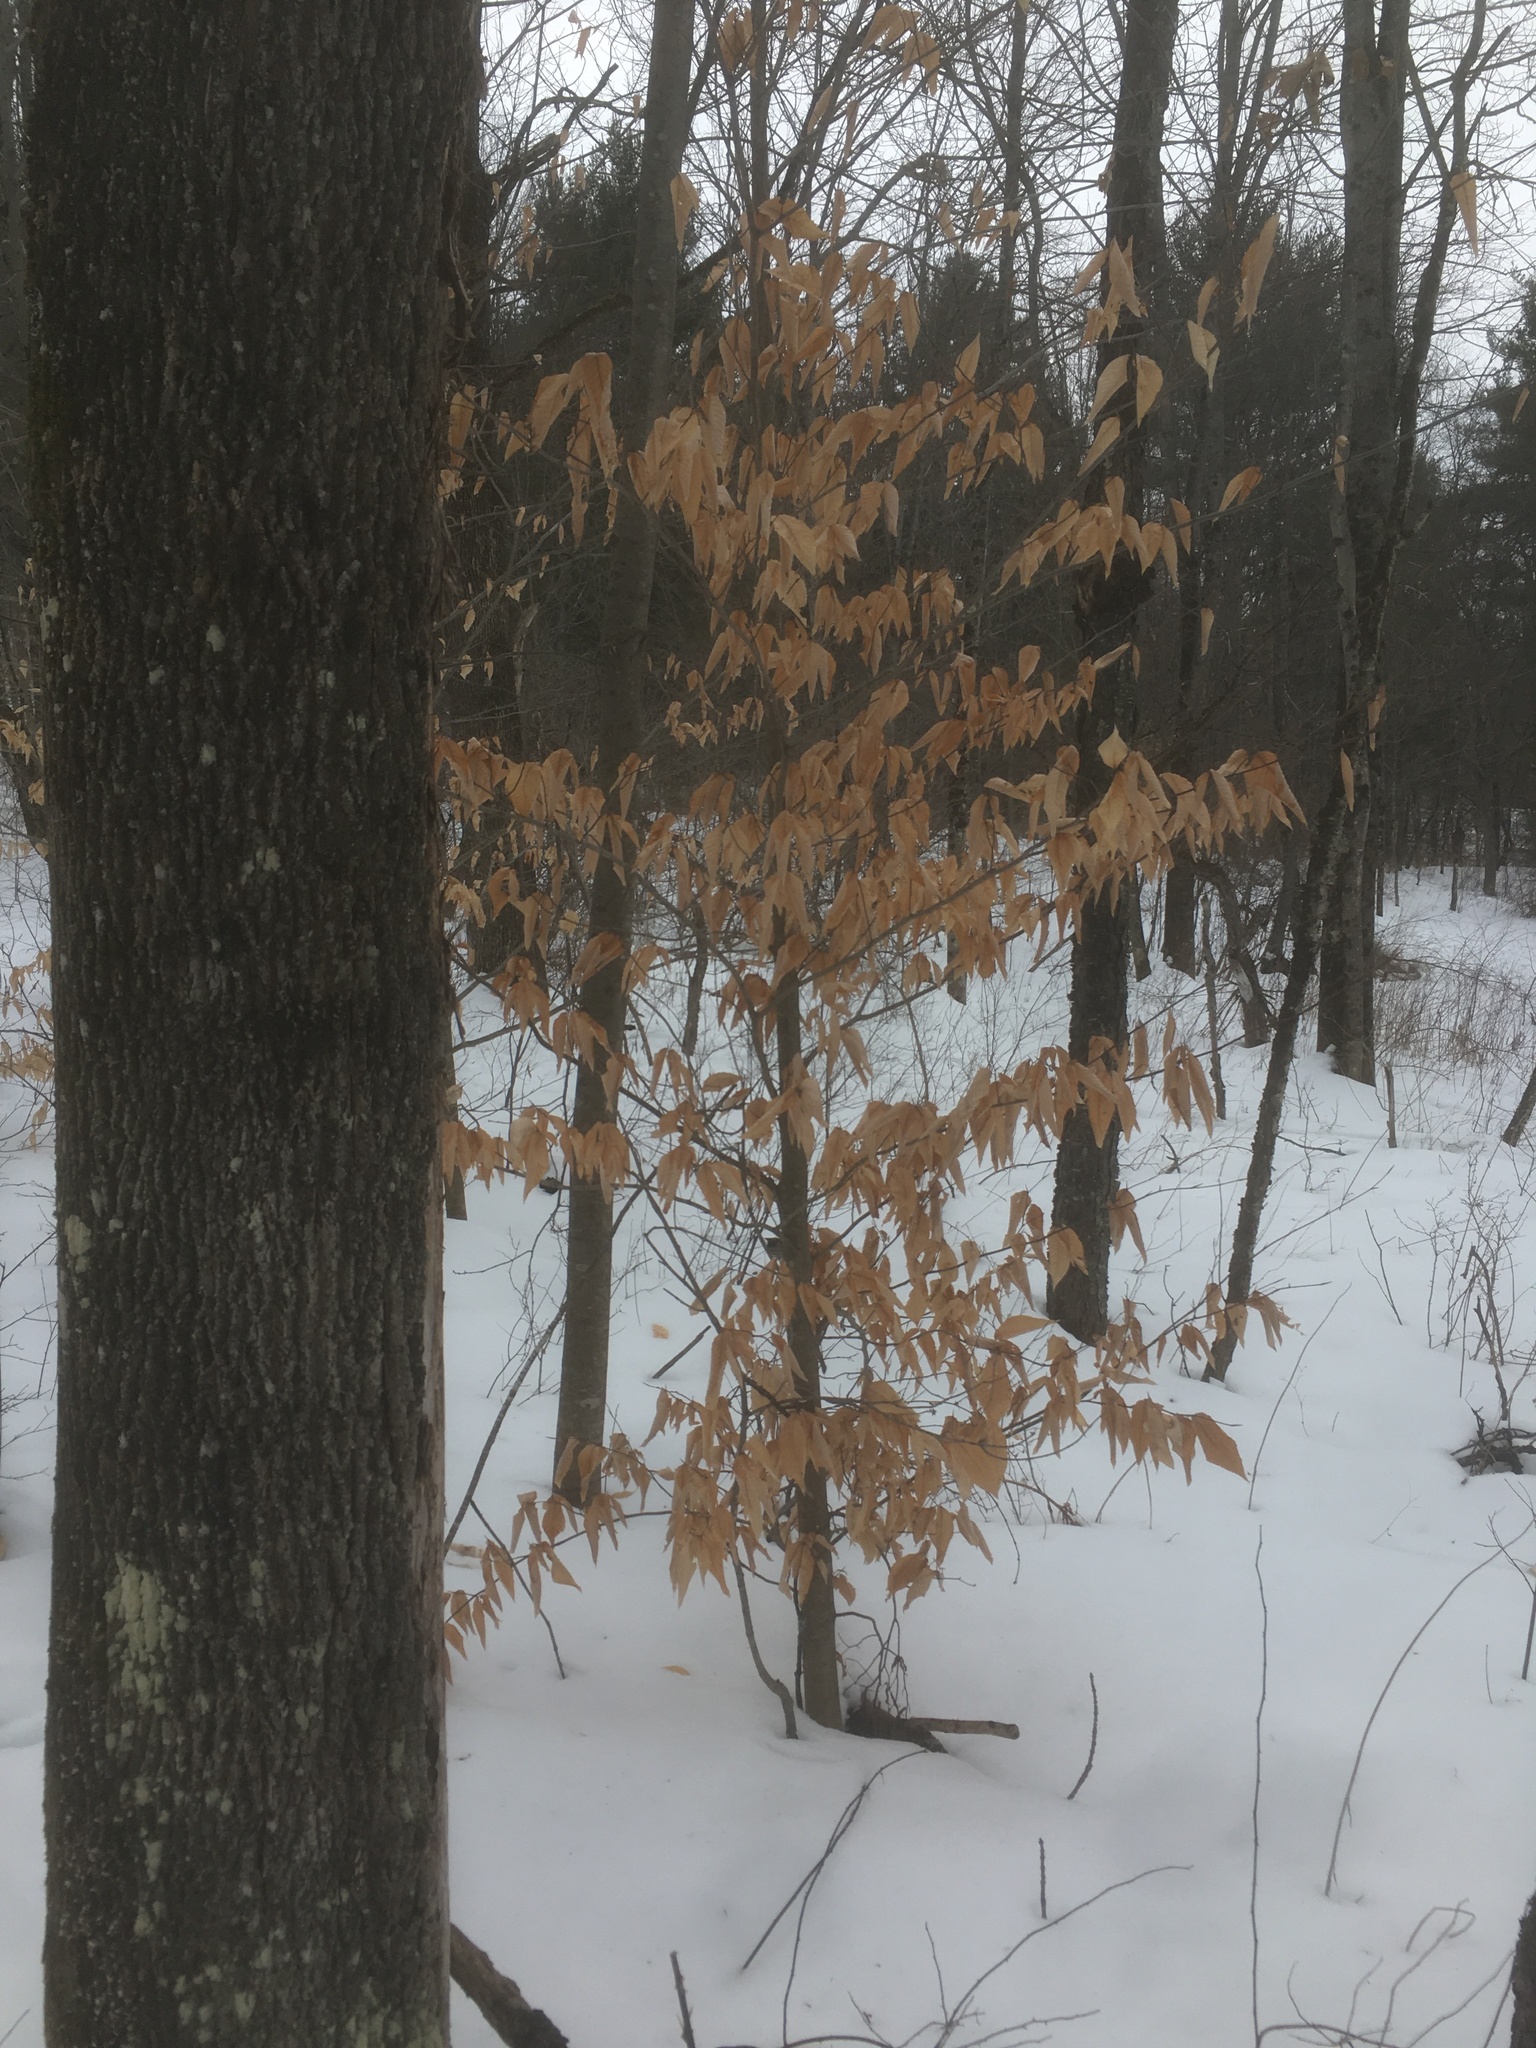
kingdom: Plantae
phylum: Tracheophyta
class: Magnoliopsida
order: Fagales
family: Fagaceae
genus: Fagus
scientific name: Fagus grandifolia
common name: American beech
